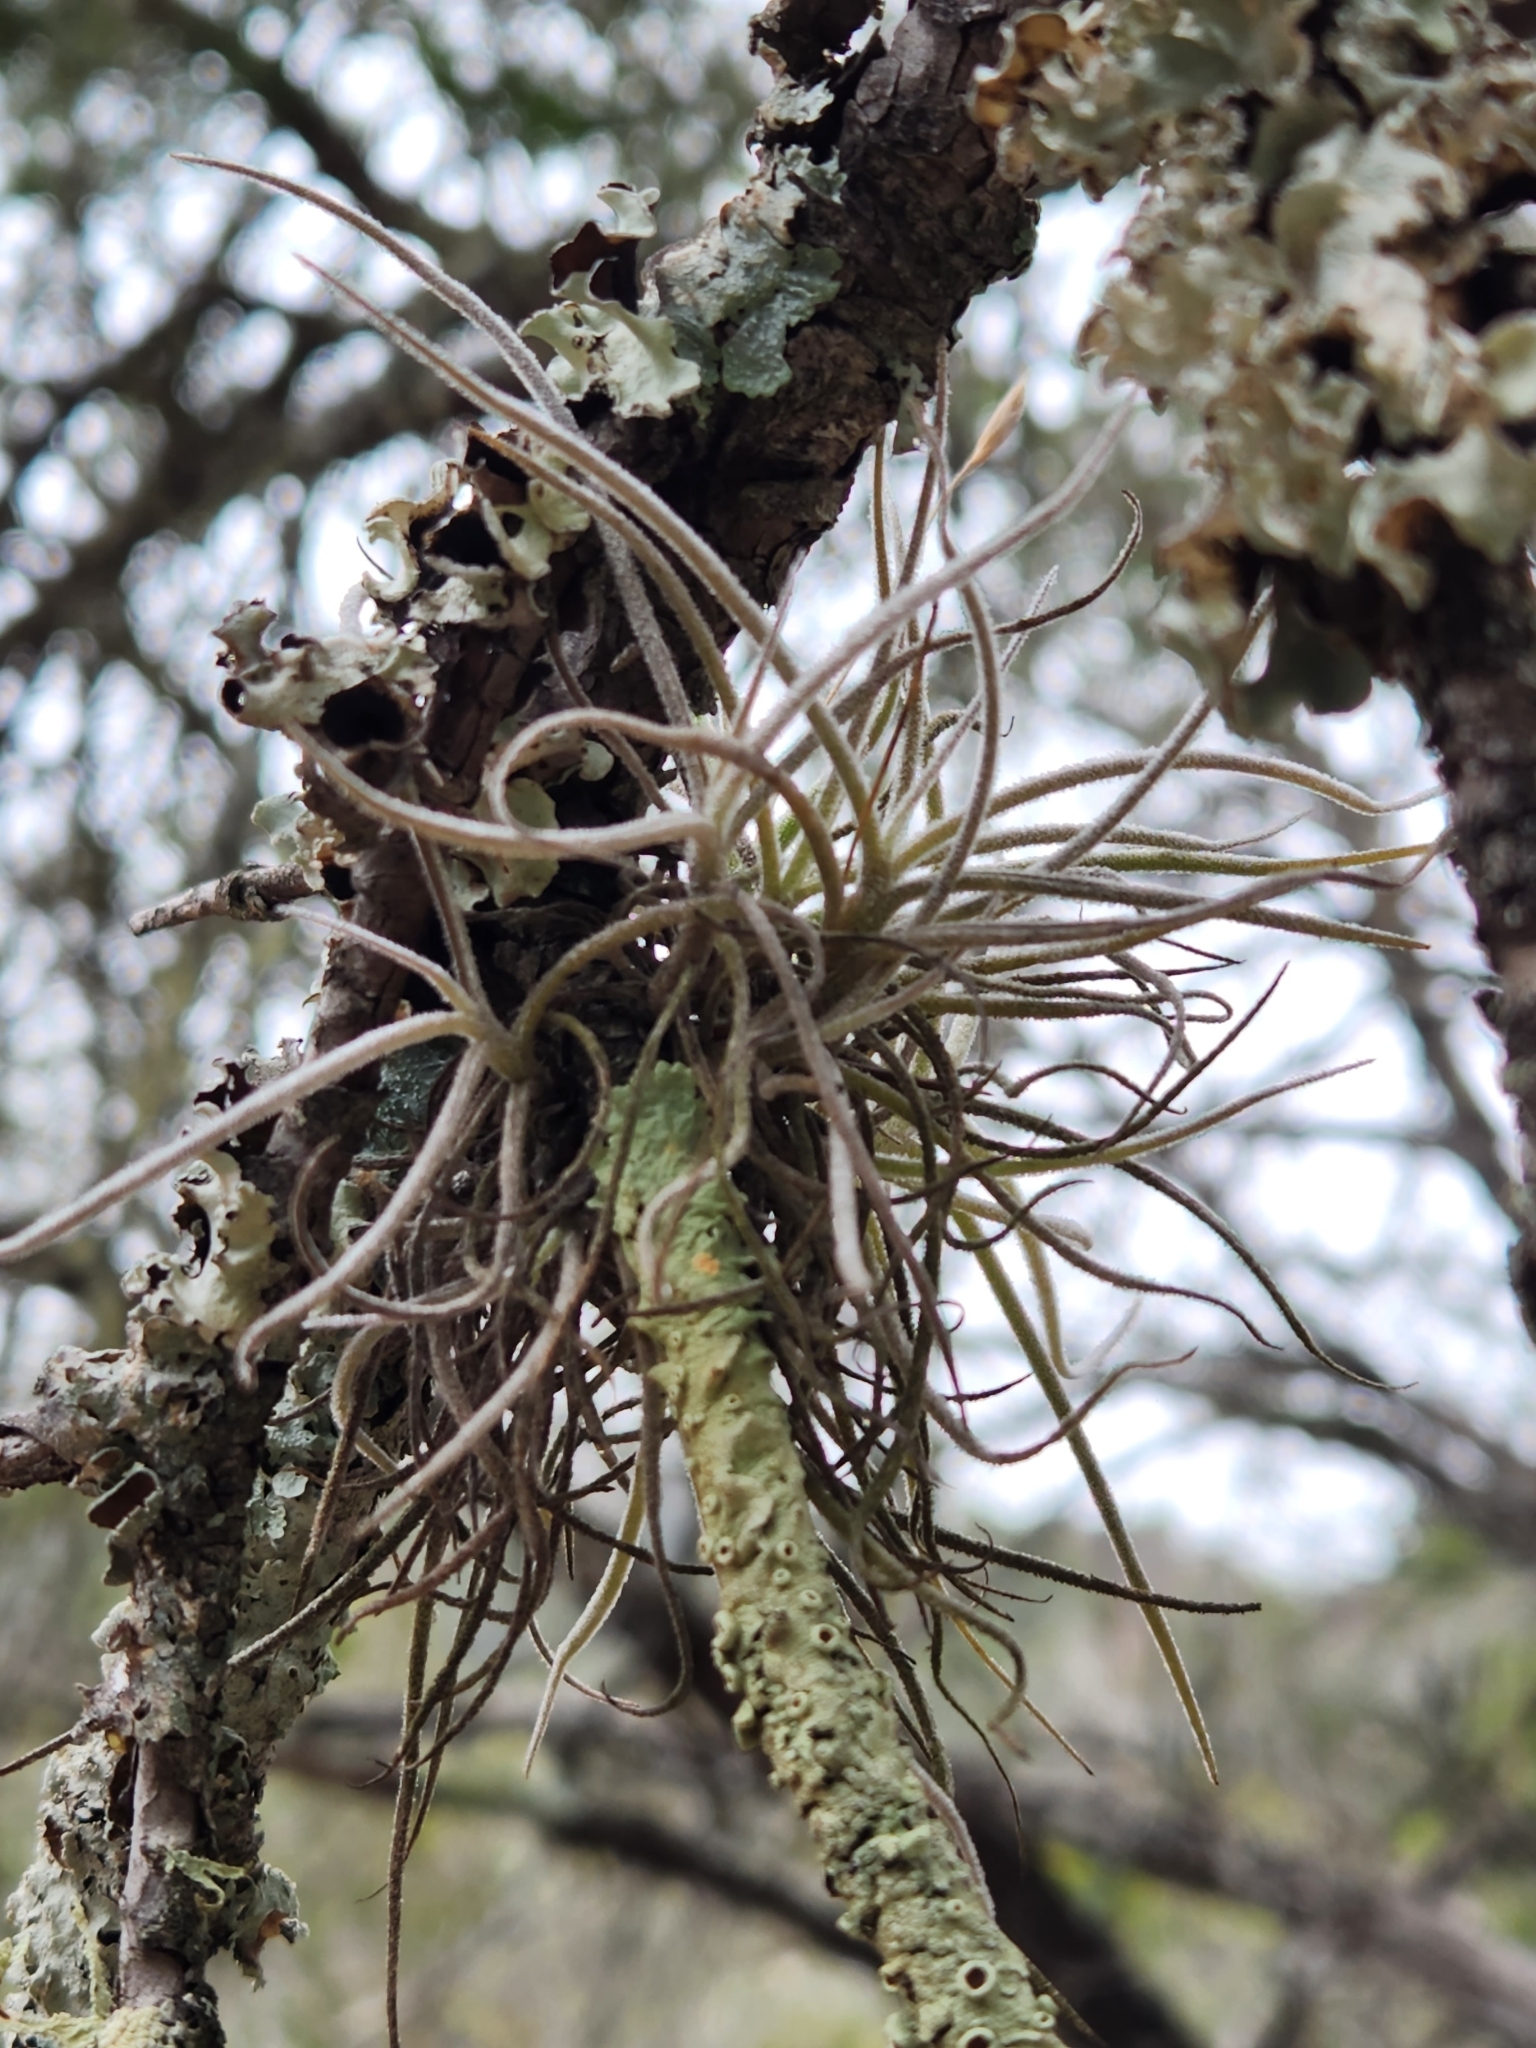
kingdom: Plantae
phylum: Tracheophyta
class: Liliopsida
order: Poales
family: Bromeliaceae
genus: Tillandsia
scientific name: Tillandsia recurvata
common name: Small ballmoss
